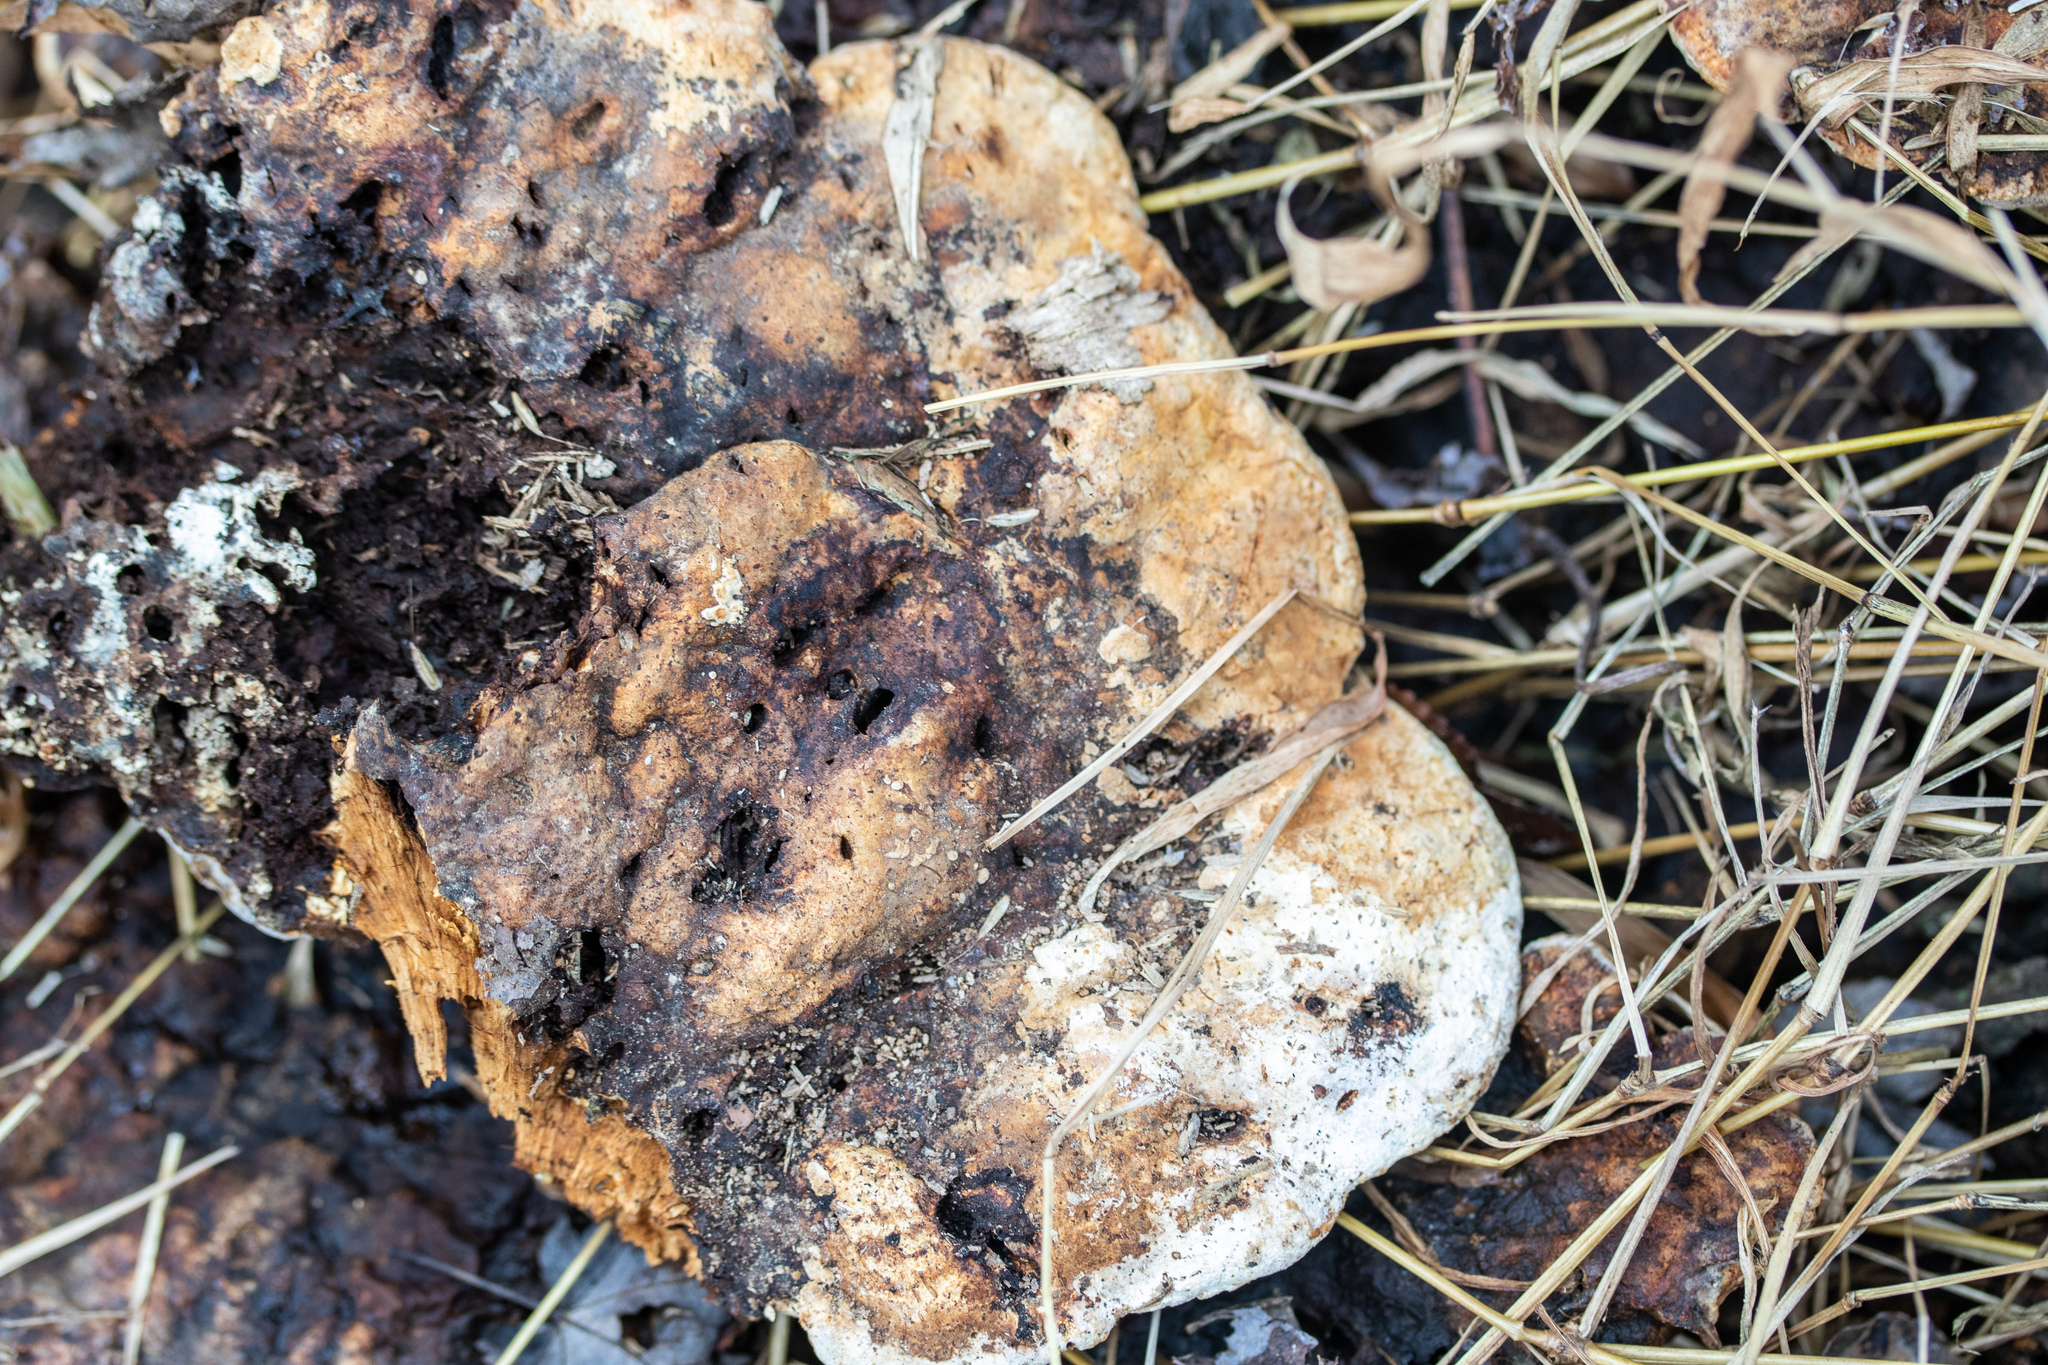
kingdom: Fungi
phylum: Basidiomycota
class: Agaricomycetes
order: Hymenochaetales
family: Hymenochaetaceae
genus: Pseudoinonotus
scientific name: Pseudoinonotus dryadeus
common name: Oak bracket
